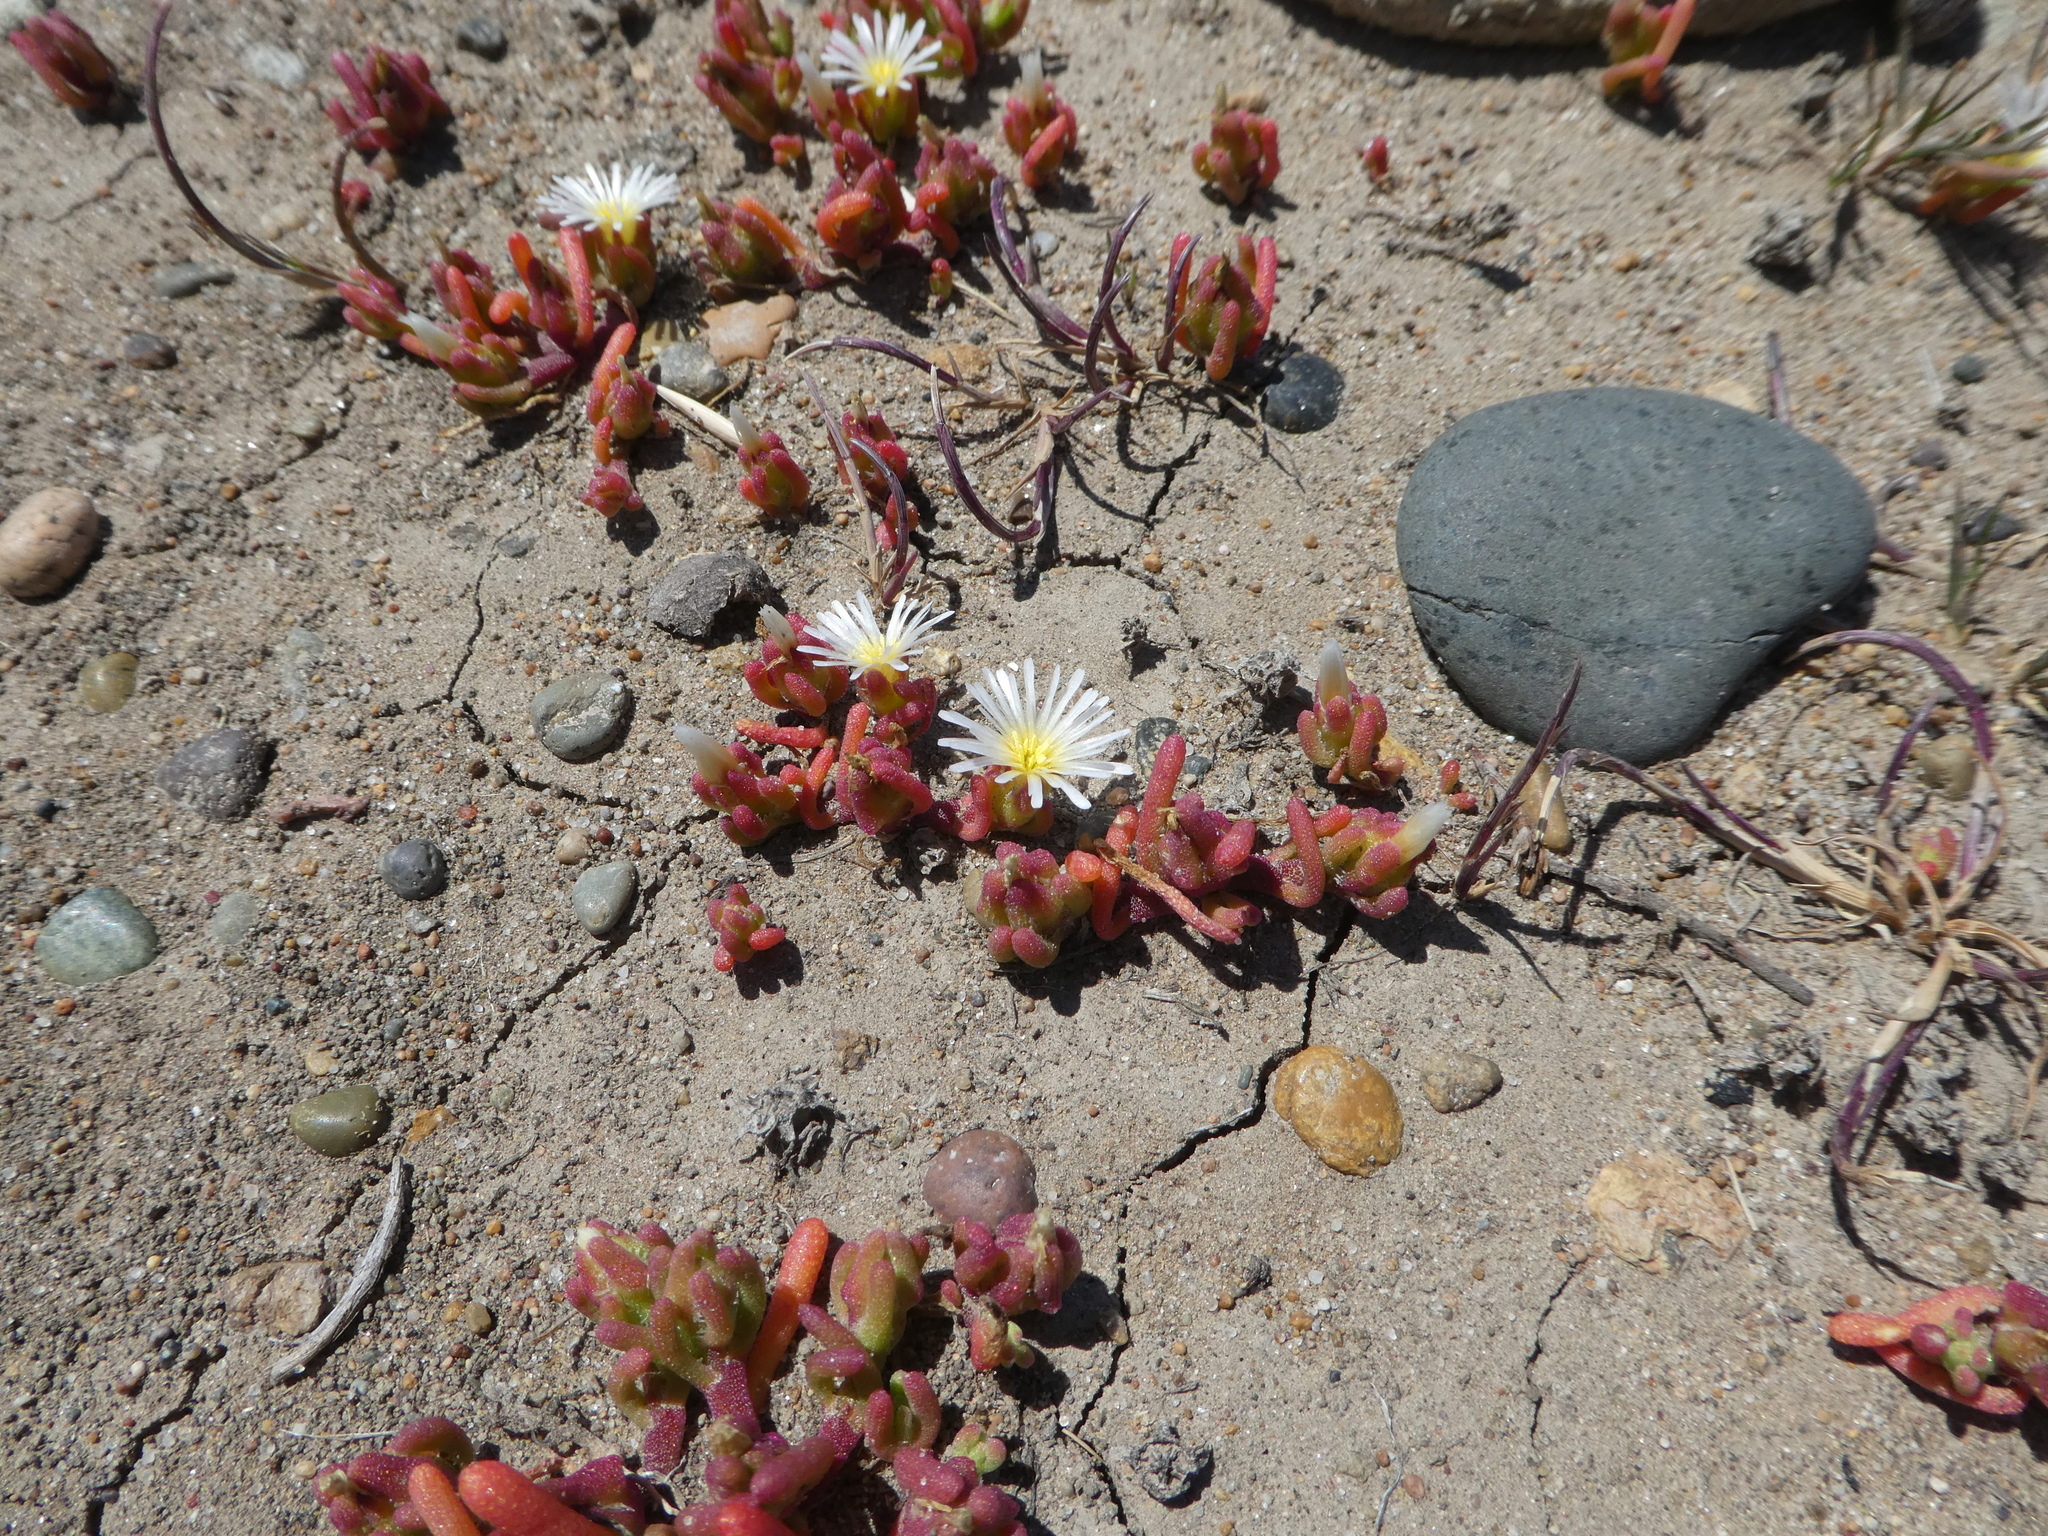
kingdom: Plantae
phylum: Tracheophyta
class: Magnoliopsida
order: Caryophyllales
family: Aizoaceae
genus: Mesembryanthemum
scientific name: Mesembryanthemum nodiflorum
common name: Slenderleaf iceplant
